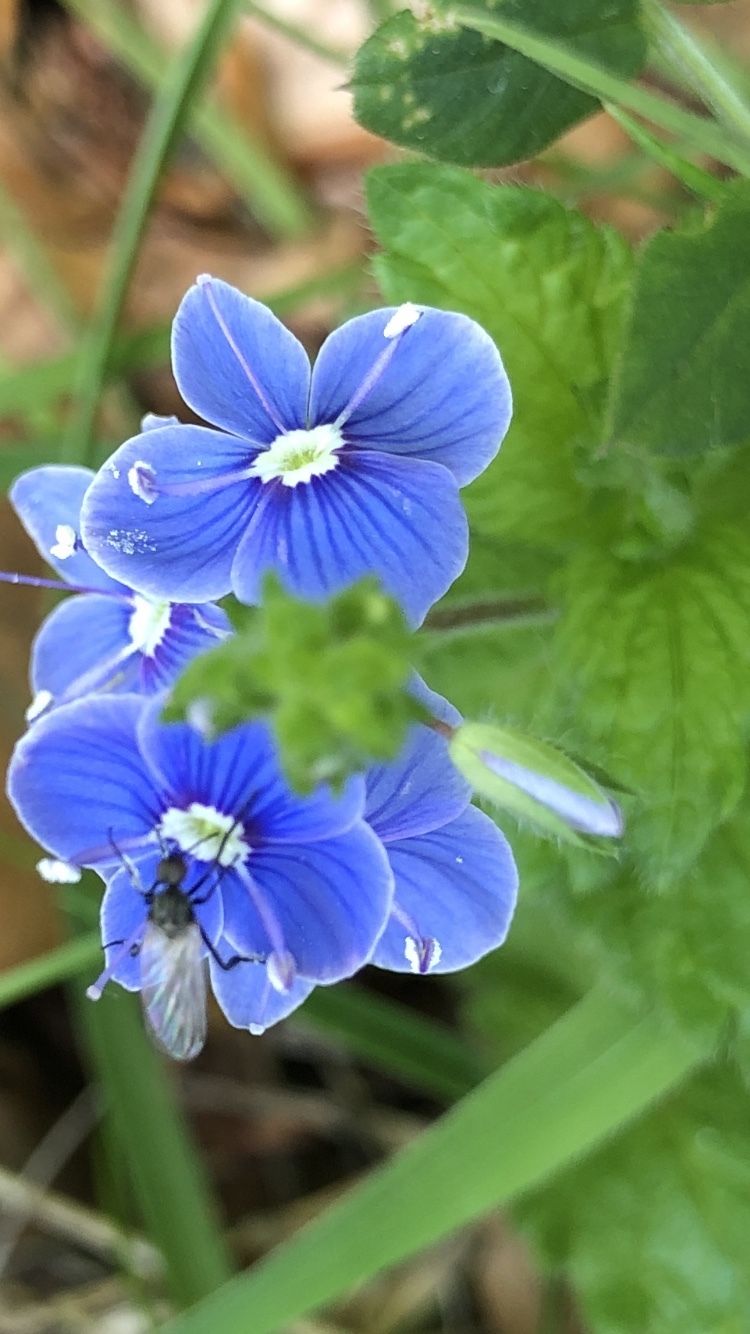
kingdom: Plantae
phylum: Tracheophyta
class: Magnoliopsida
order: Lamiales
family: Plantaginaceae
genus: Veronica
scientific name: Veronica chamaedrys
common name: Germander speedwell
